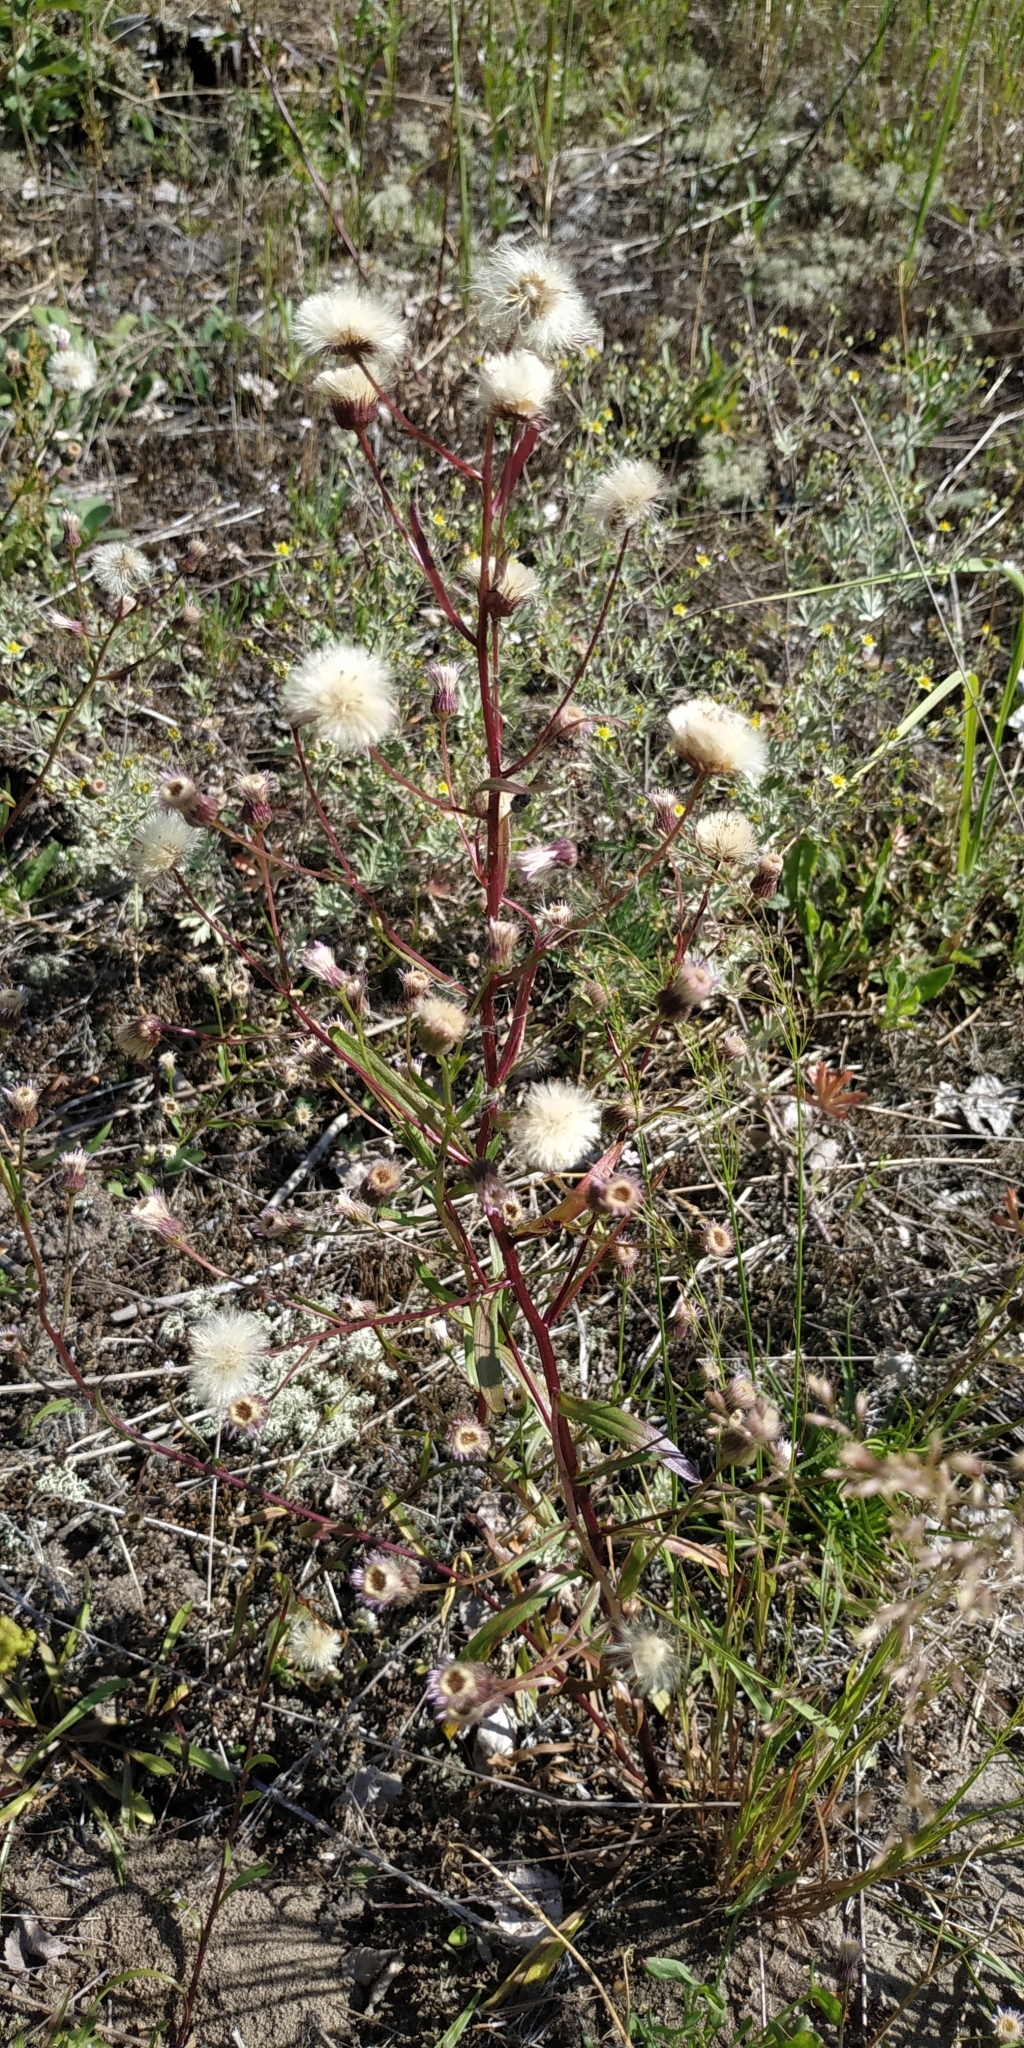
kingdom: Plantae
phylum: Tracheophyta
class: Magnoliopsida
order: Asterales
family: Asteraceae
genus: Erigeron
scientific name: Erigeron acris
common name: Blue fleabane
